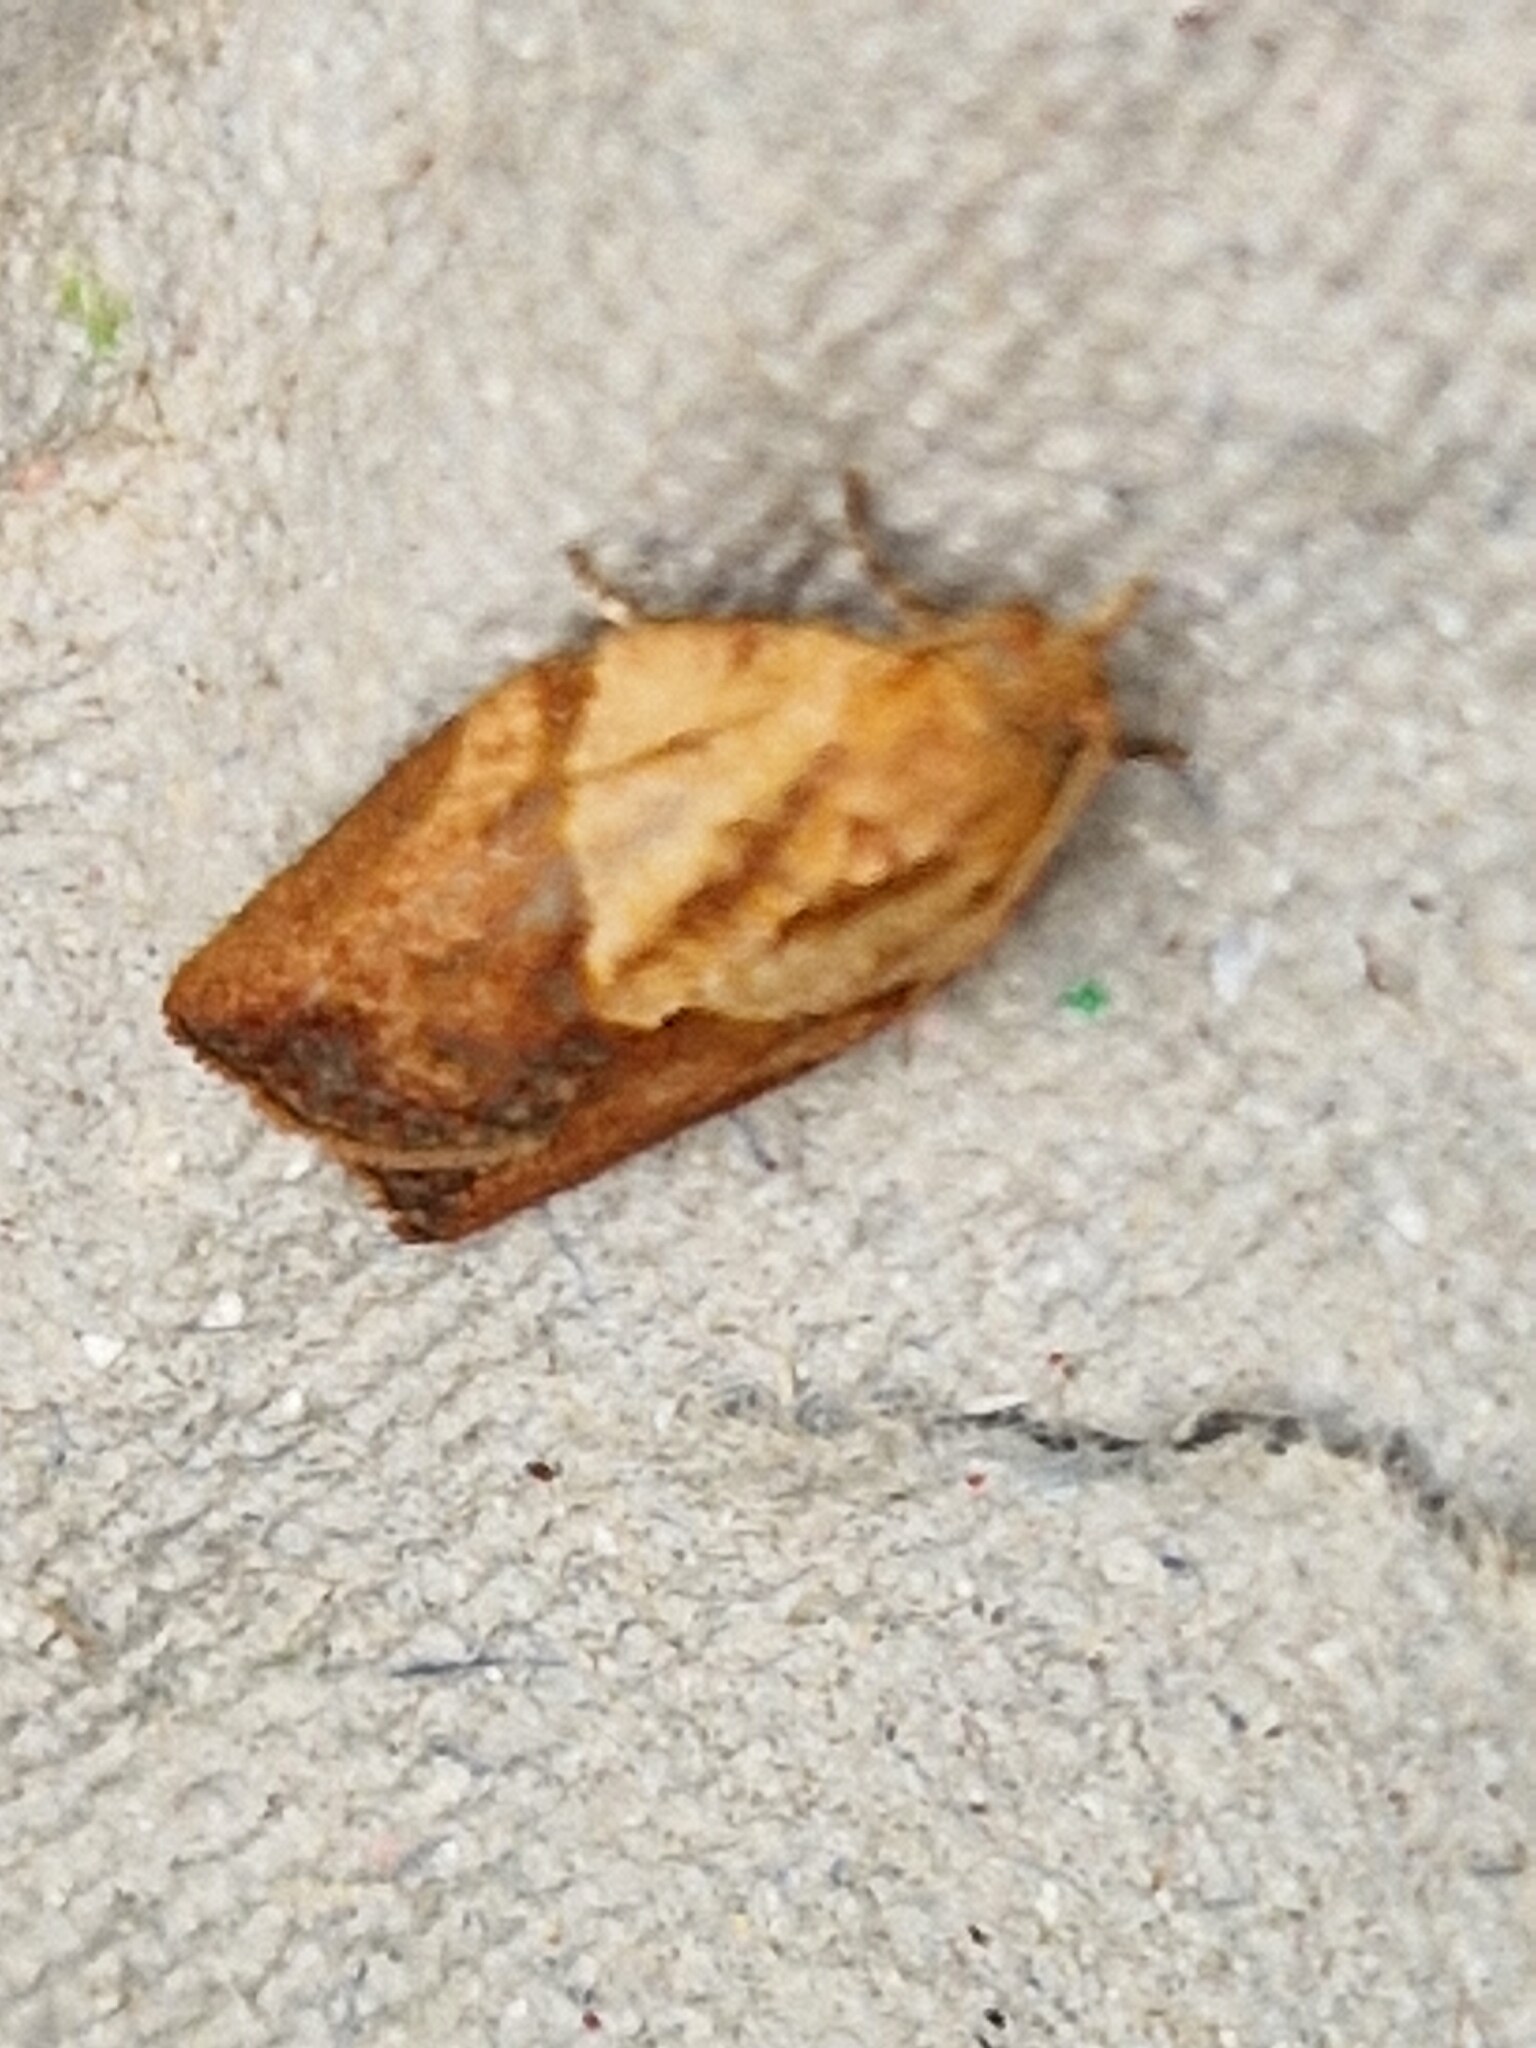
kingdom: Animalia
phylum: Arthropoda
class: Insecta
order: Lepidoptera
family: Tortricidae
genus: Epiphyas
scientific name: Epiphyas postvittana
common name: Light brown apple moth
